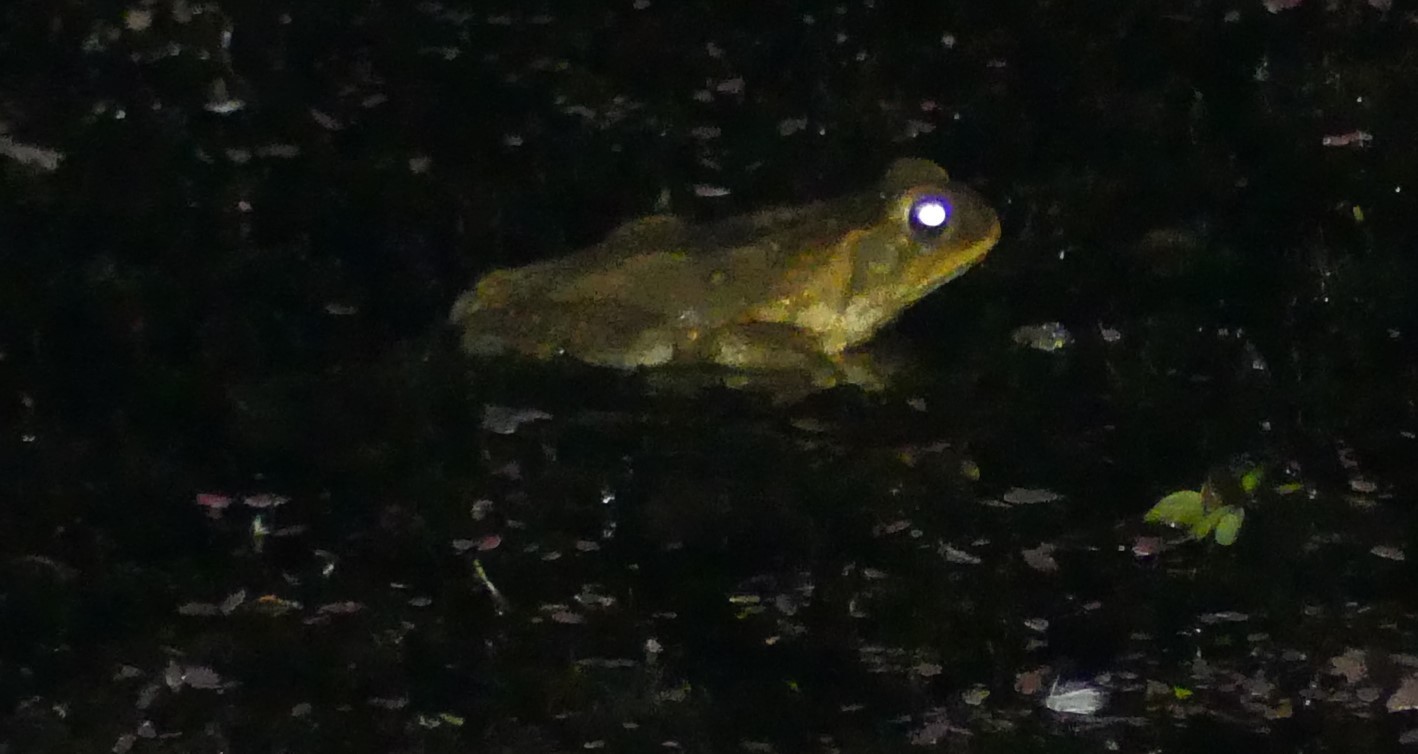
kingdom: Animalia
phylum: Chordata
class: Amphibia
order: Anura
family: Bufonidae
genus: Rhinella
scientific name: Rhinella marina
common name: Cane toad
